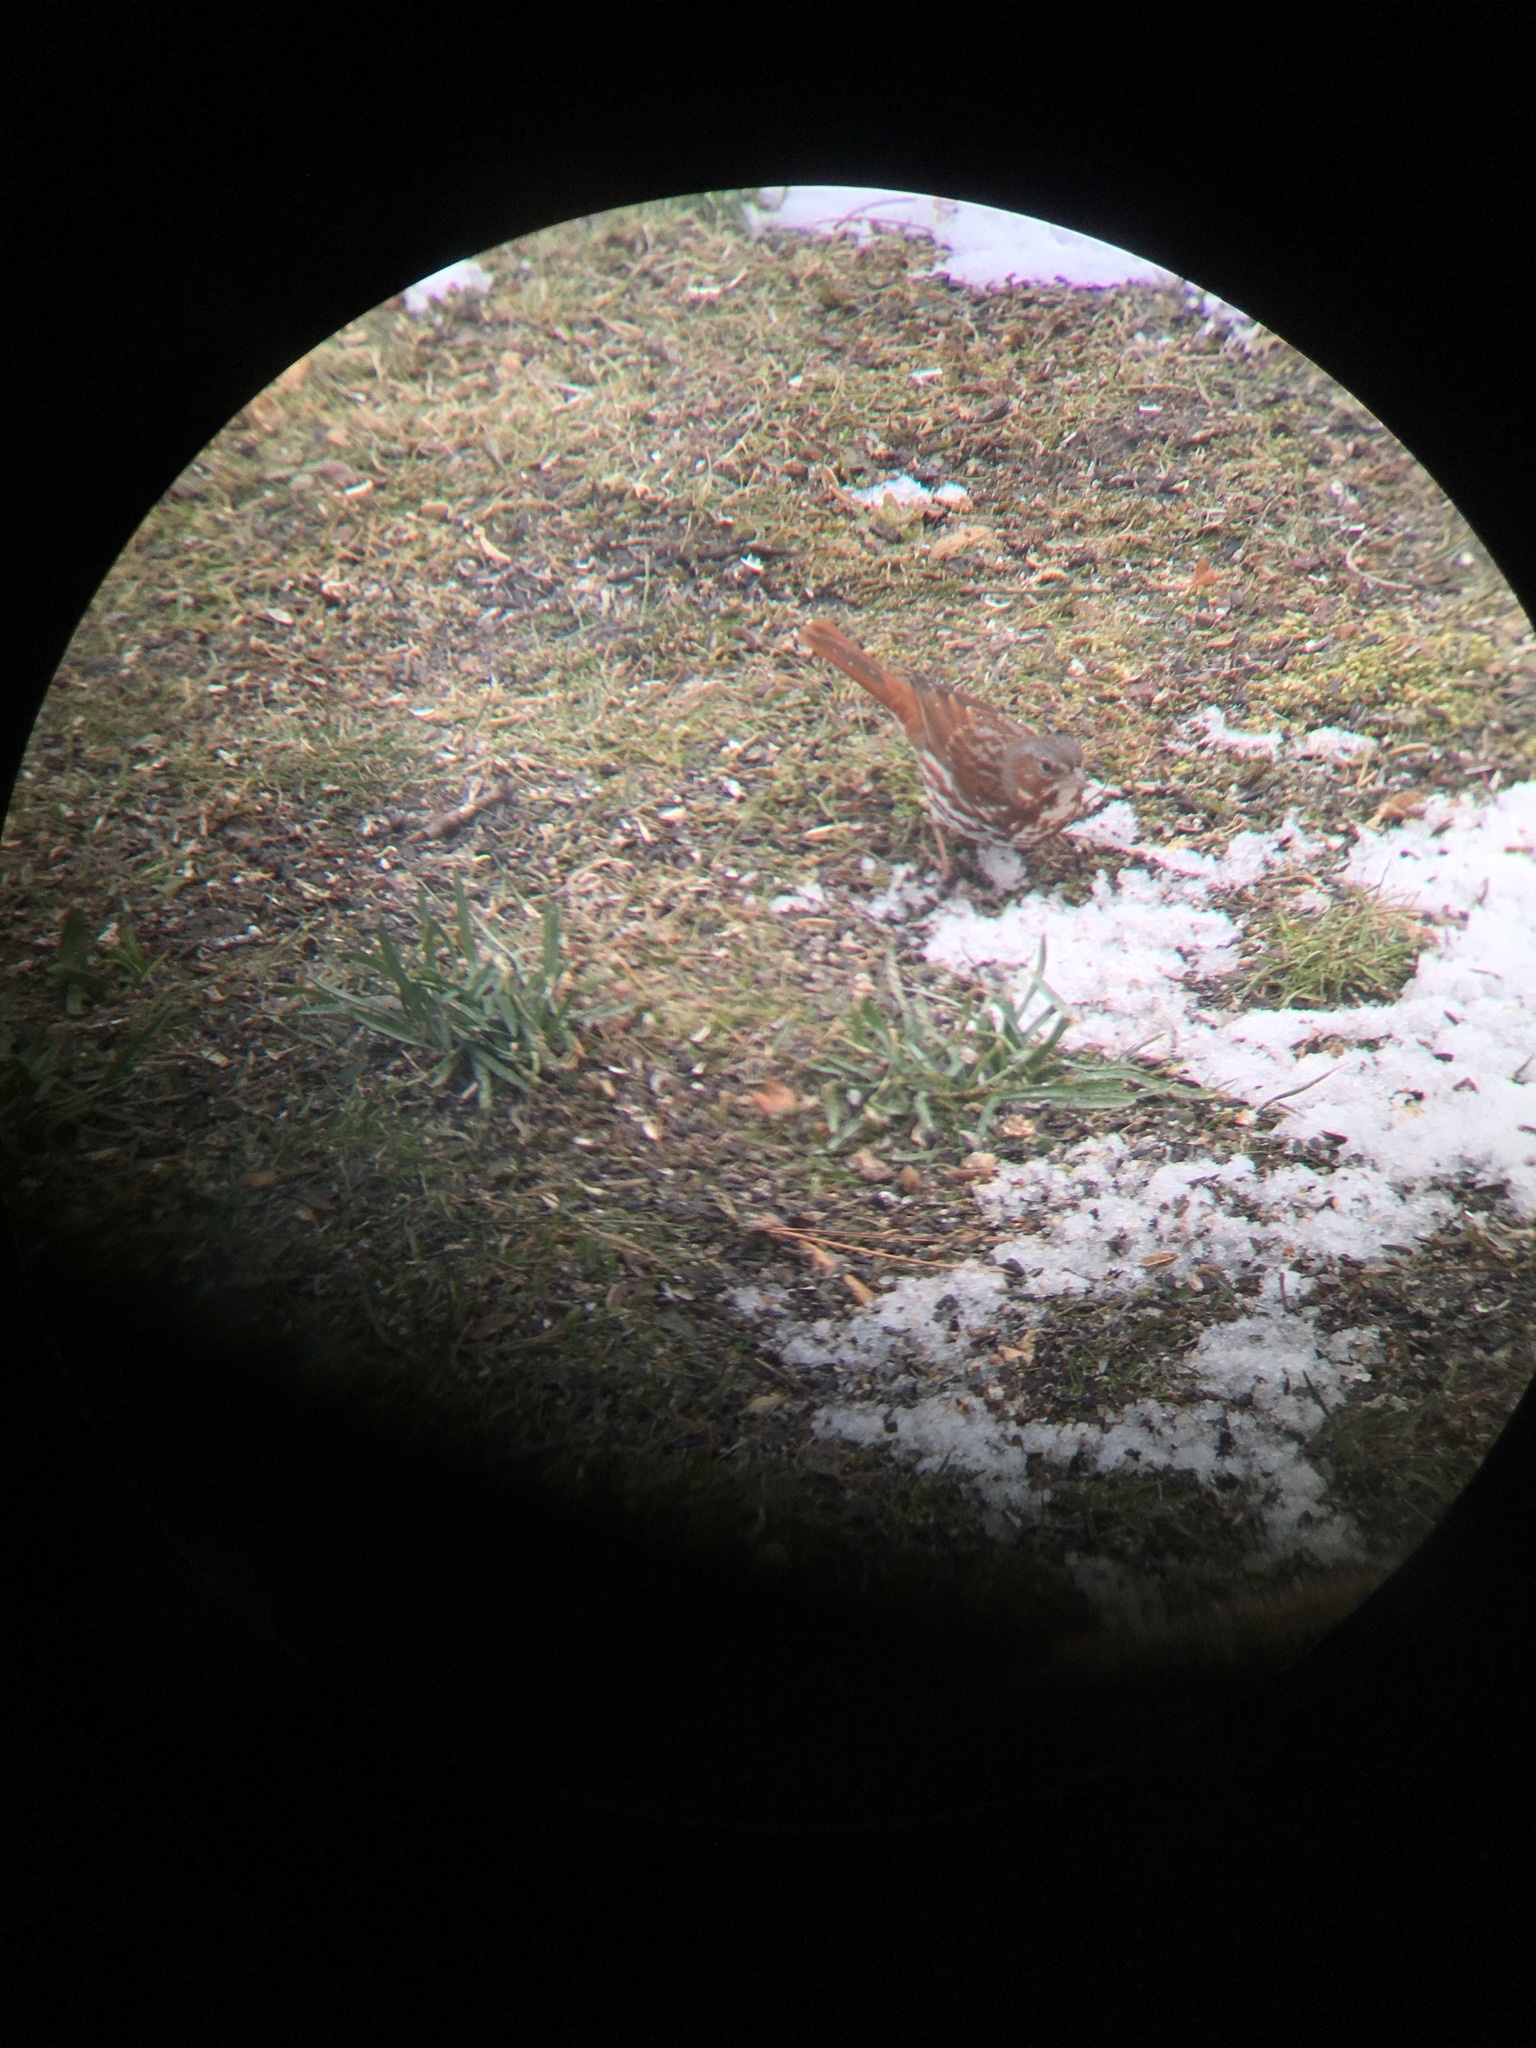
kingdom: Animalia
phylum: Chordata
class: Aves
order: Passeriformes
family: Passerellidae
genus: Passerella
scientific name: Passerella iliaca
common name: Fox sparrow
